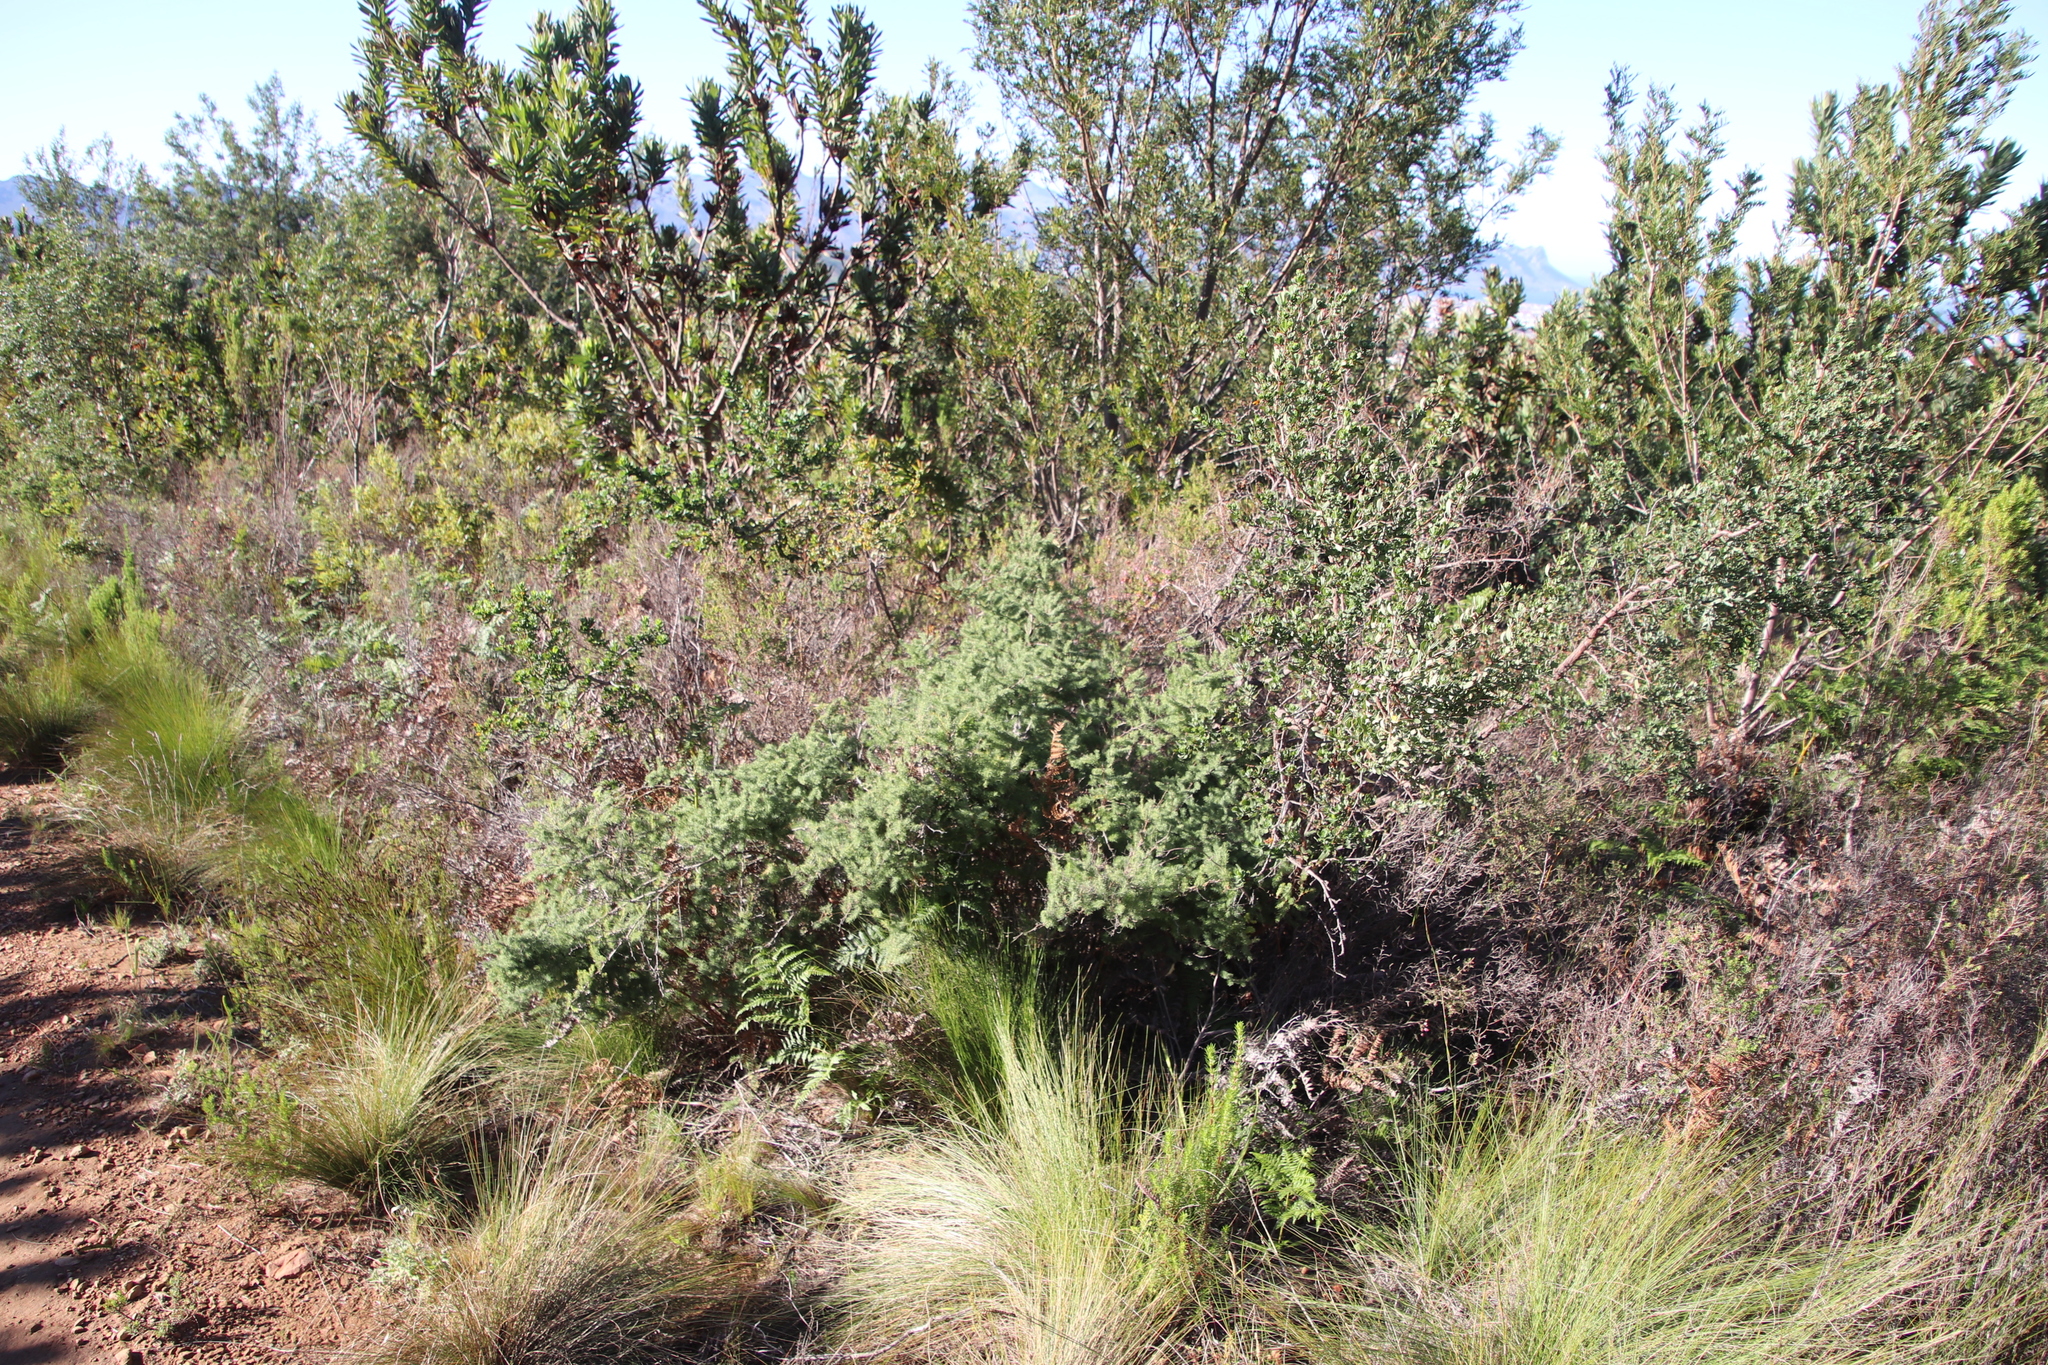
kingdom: Plantae
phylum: Tracheophyta
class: Liliopsida
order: Asparagales
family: Asparagaceae
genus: Asparagus
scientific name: Asparagus rubicundus
